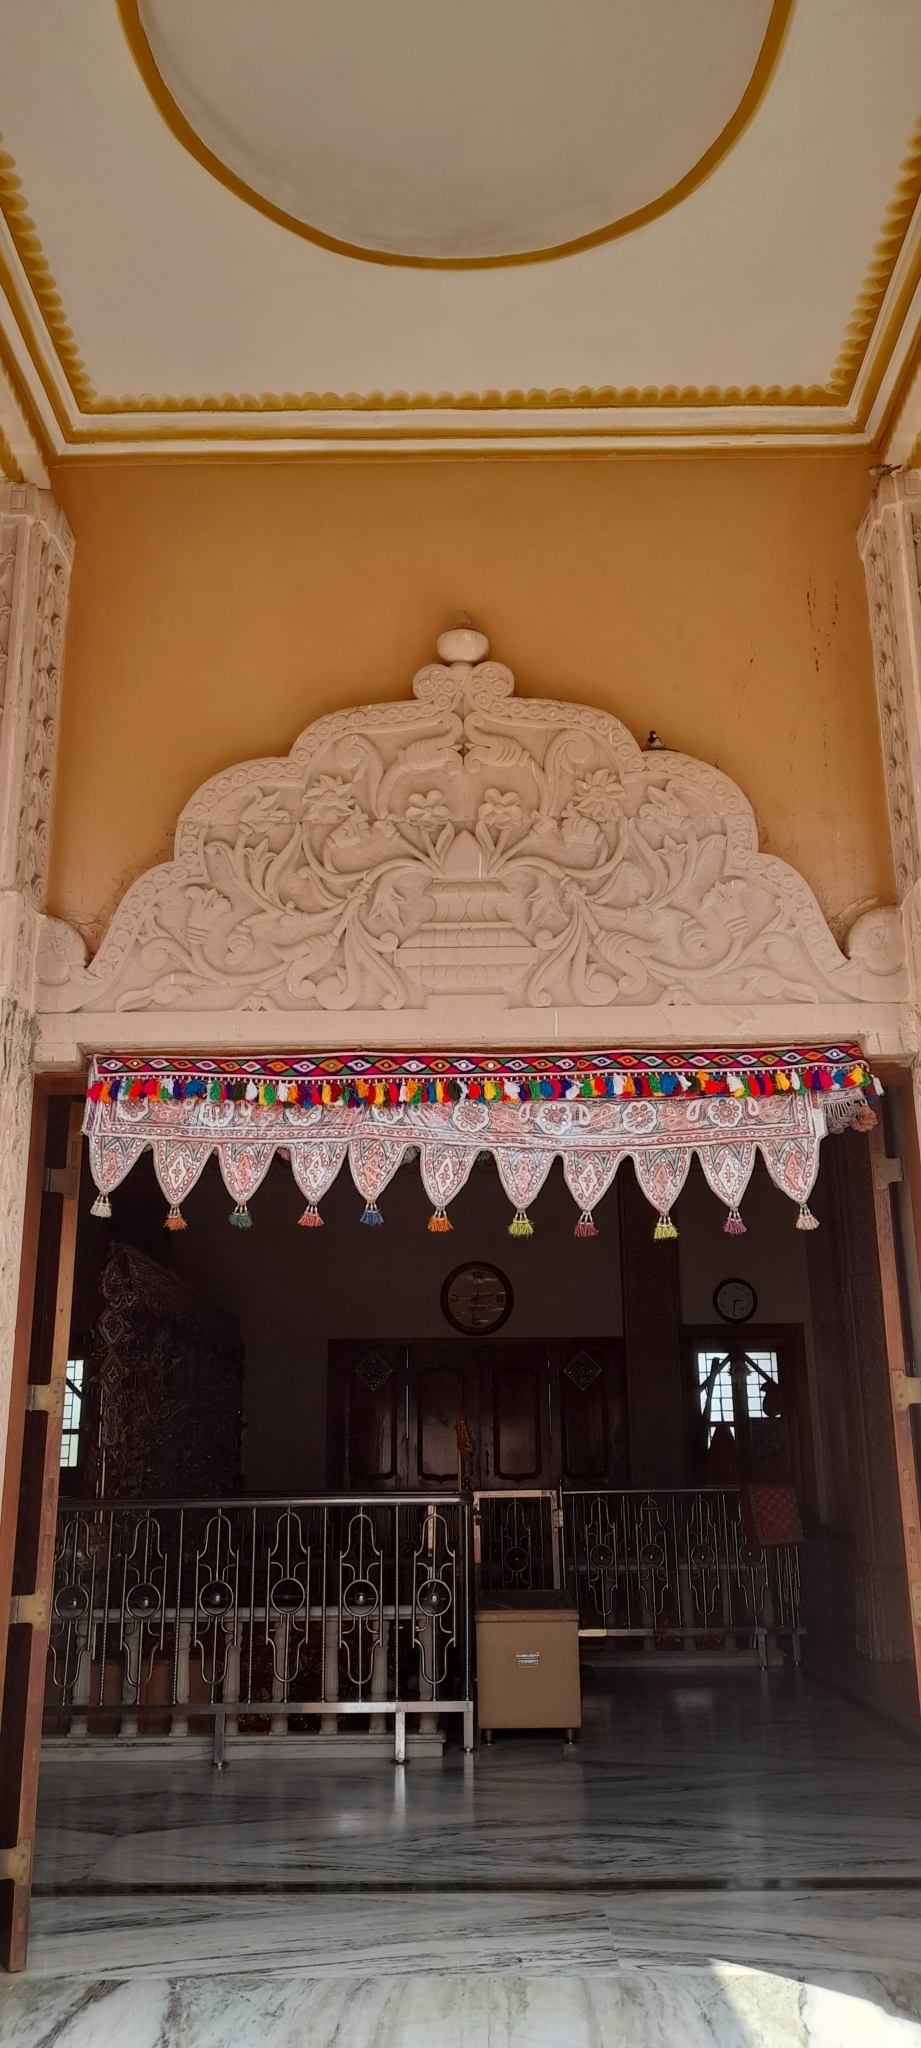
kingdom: Animalia
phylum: Chordata
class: Aves
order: Passeriformes
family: Passeridae
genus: Passer
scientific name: Passer domesticus
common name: House sparrow
